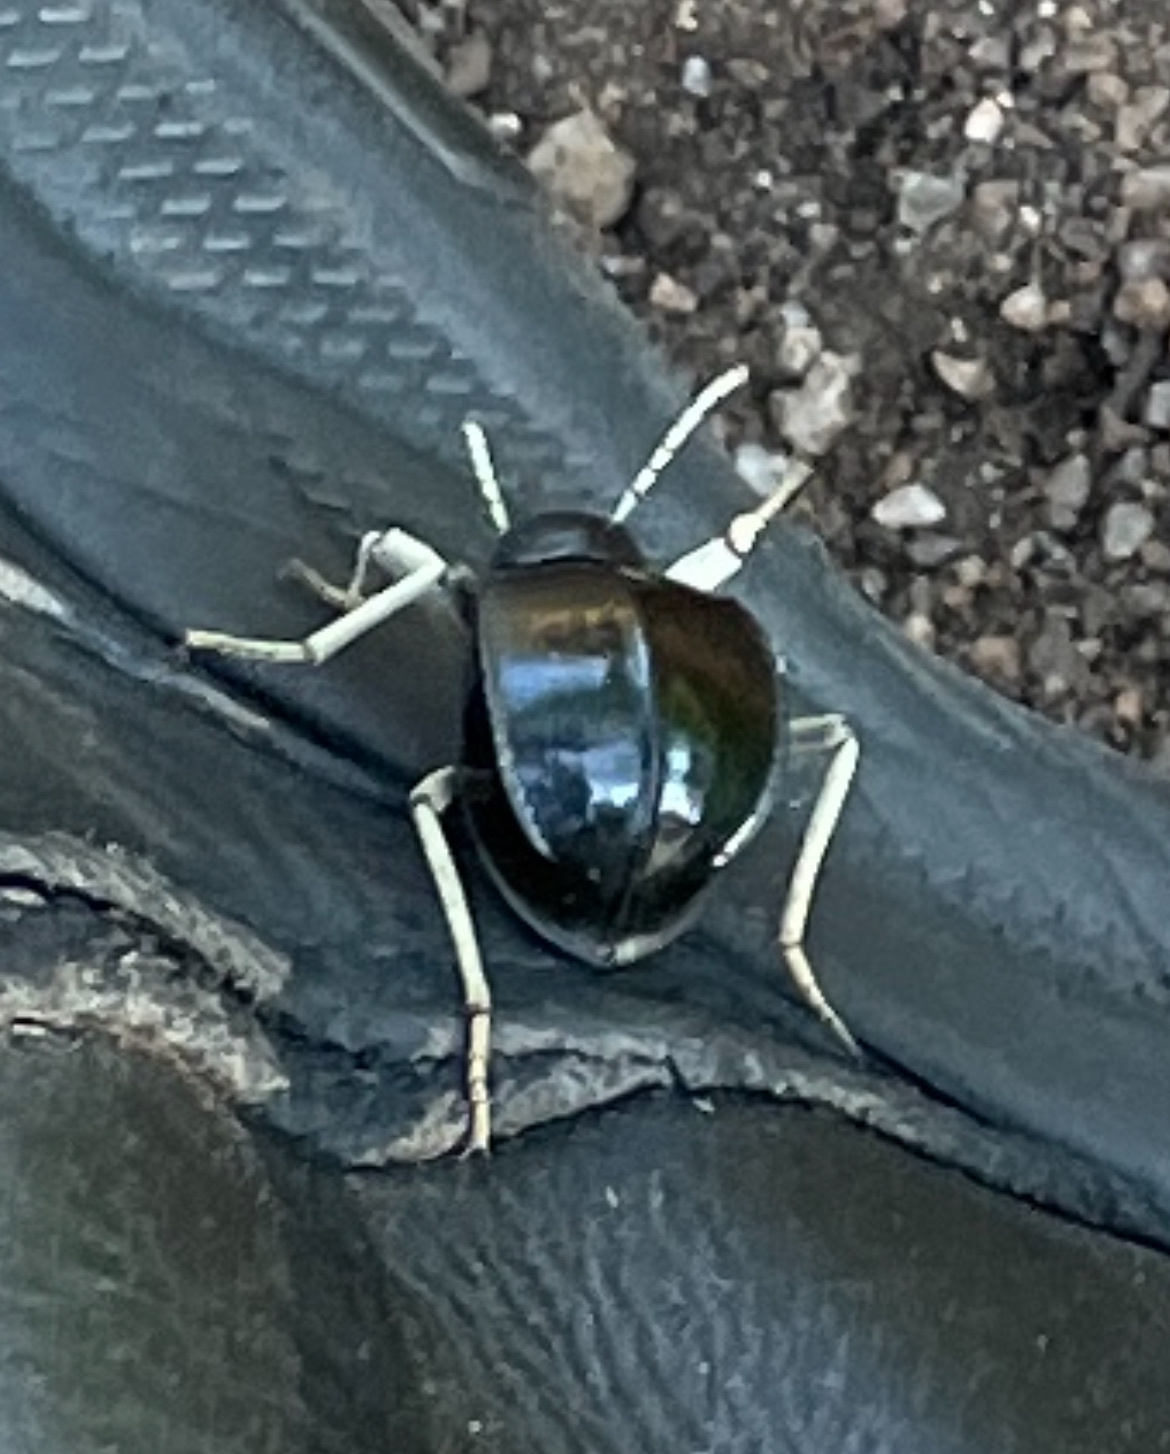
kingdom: Animalia
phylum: Arthropoda
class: Insecta
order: Coleoptera
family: Tenebrionidae
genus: Dichtha
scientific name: Dichtha cubica
